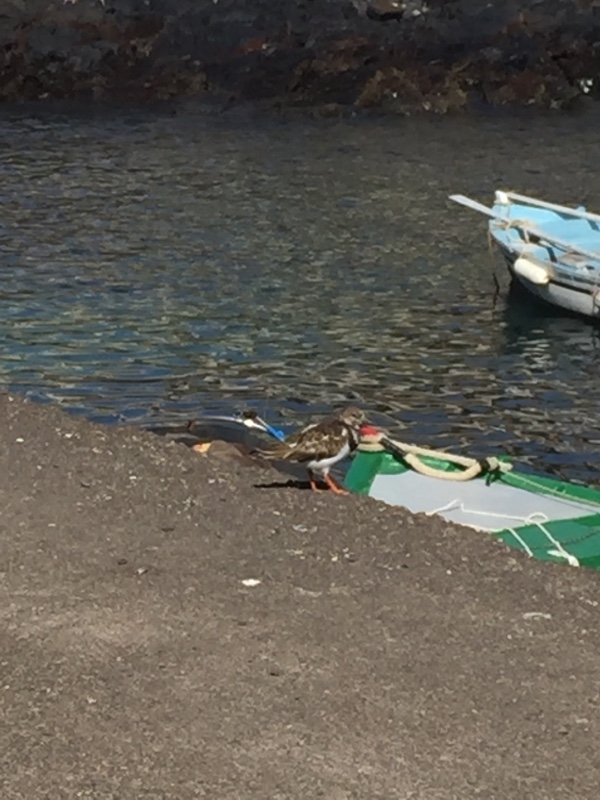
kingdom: Animalia
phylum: Chordata
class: Aves
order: Charadriiformes
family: Scolopacidae
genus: Arenaria
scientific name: Arenaria interpres
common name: Ruddy turnstone
